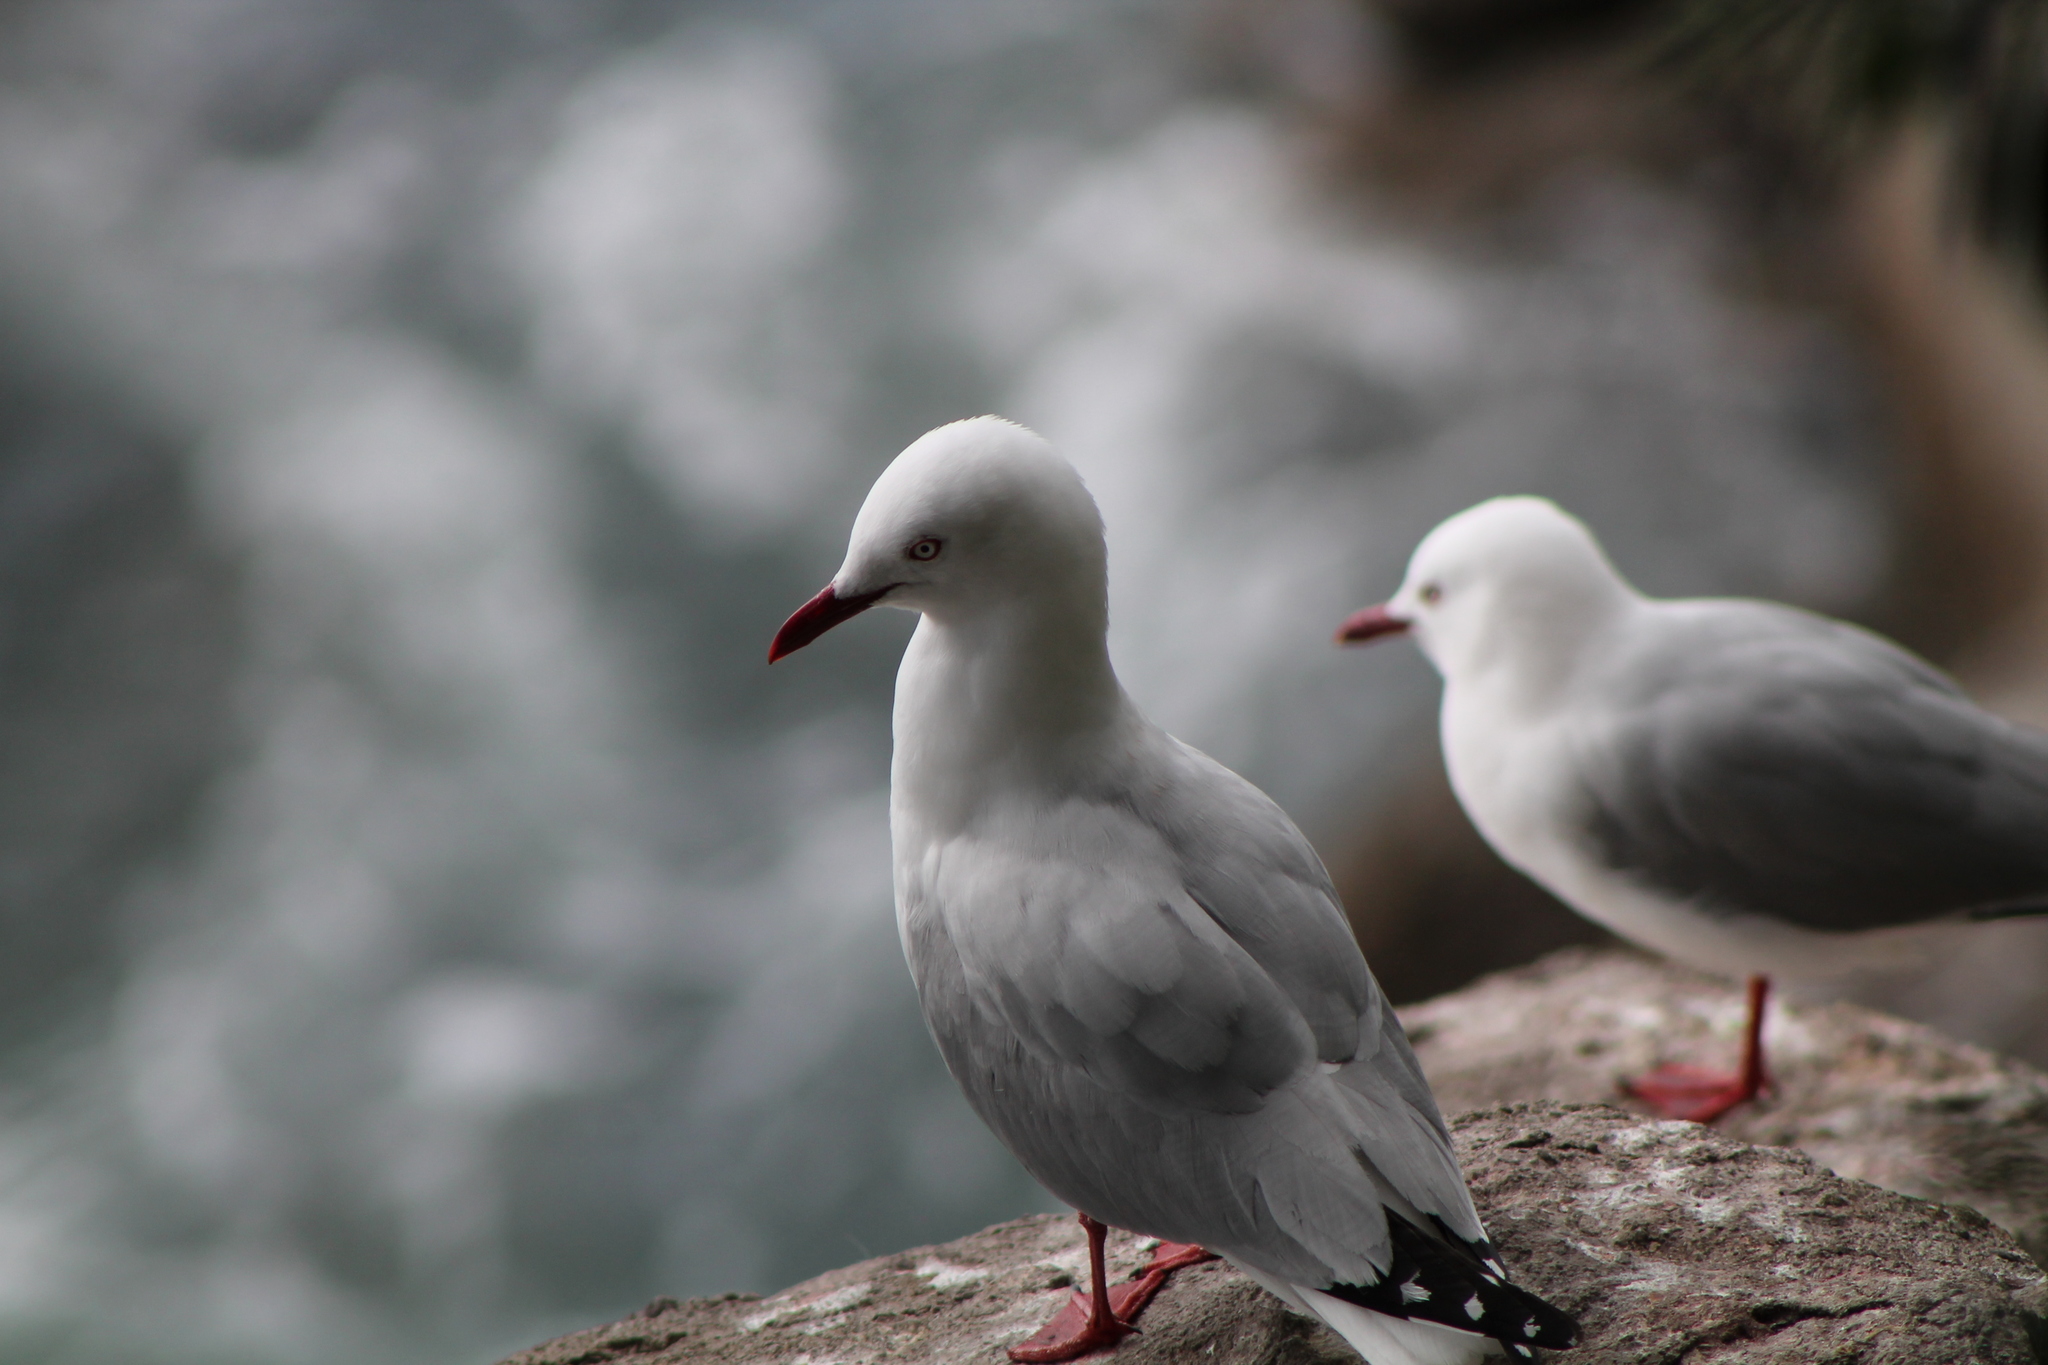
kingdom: Animalia
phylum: Chordata
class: Aves
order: Charadriiformes
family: Laridae
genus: Chroicocephalus
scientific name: Chroicocephalus novaehollandiae
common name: Silver gull
